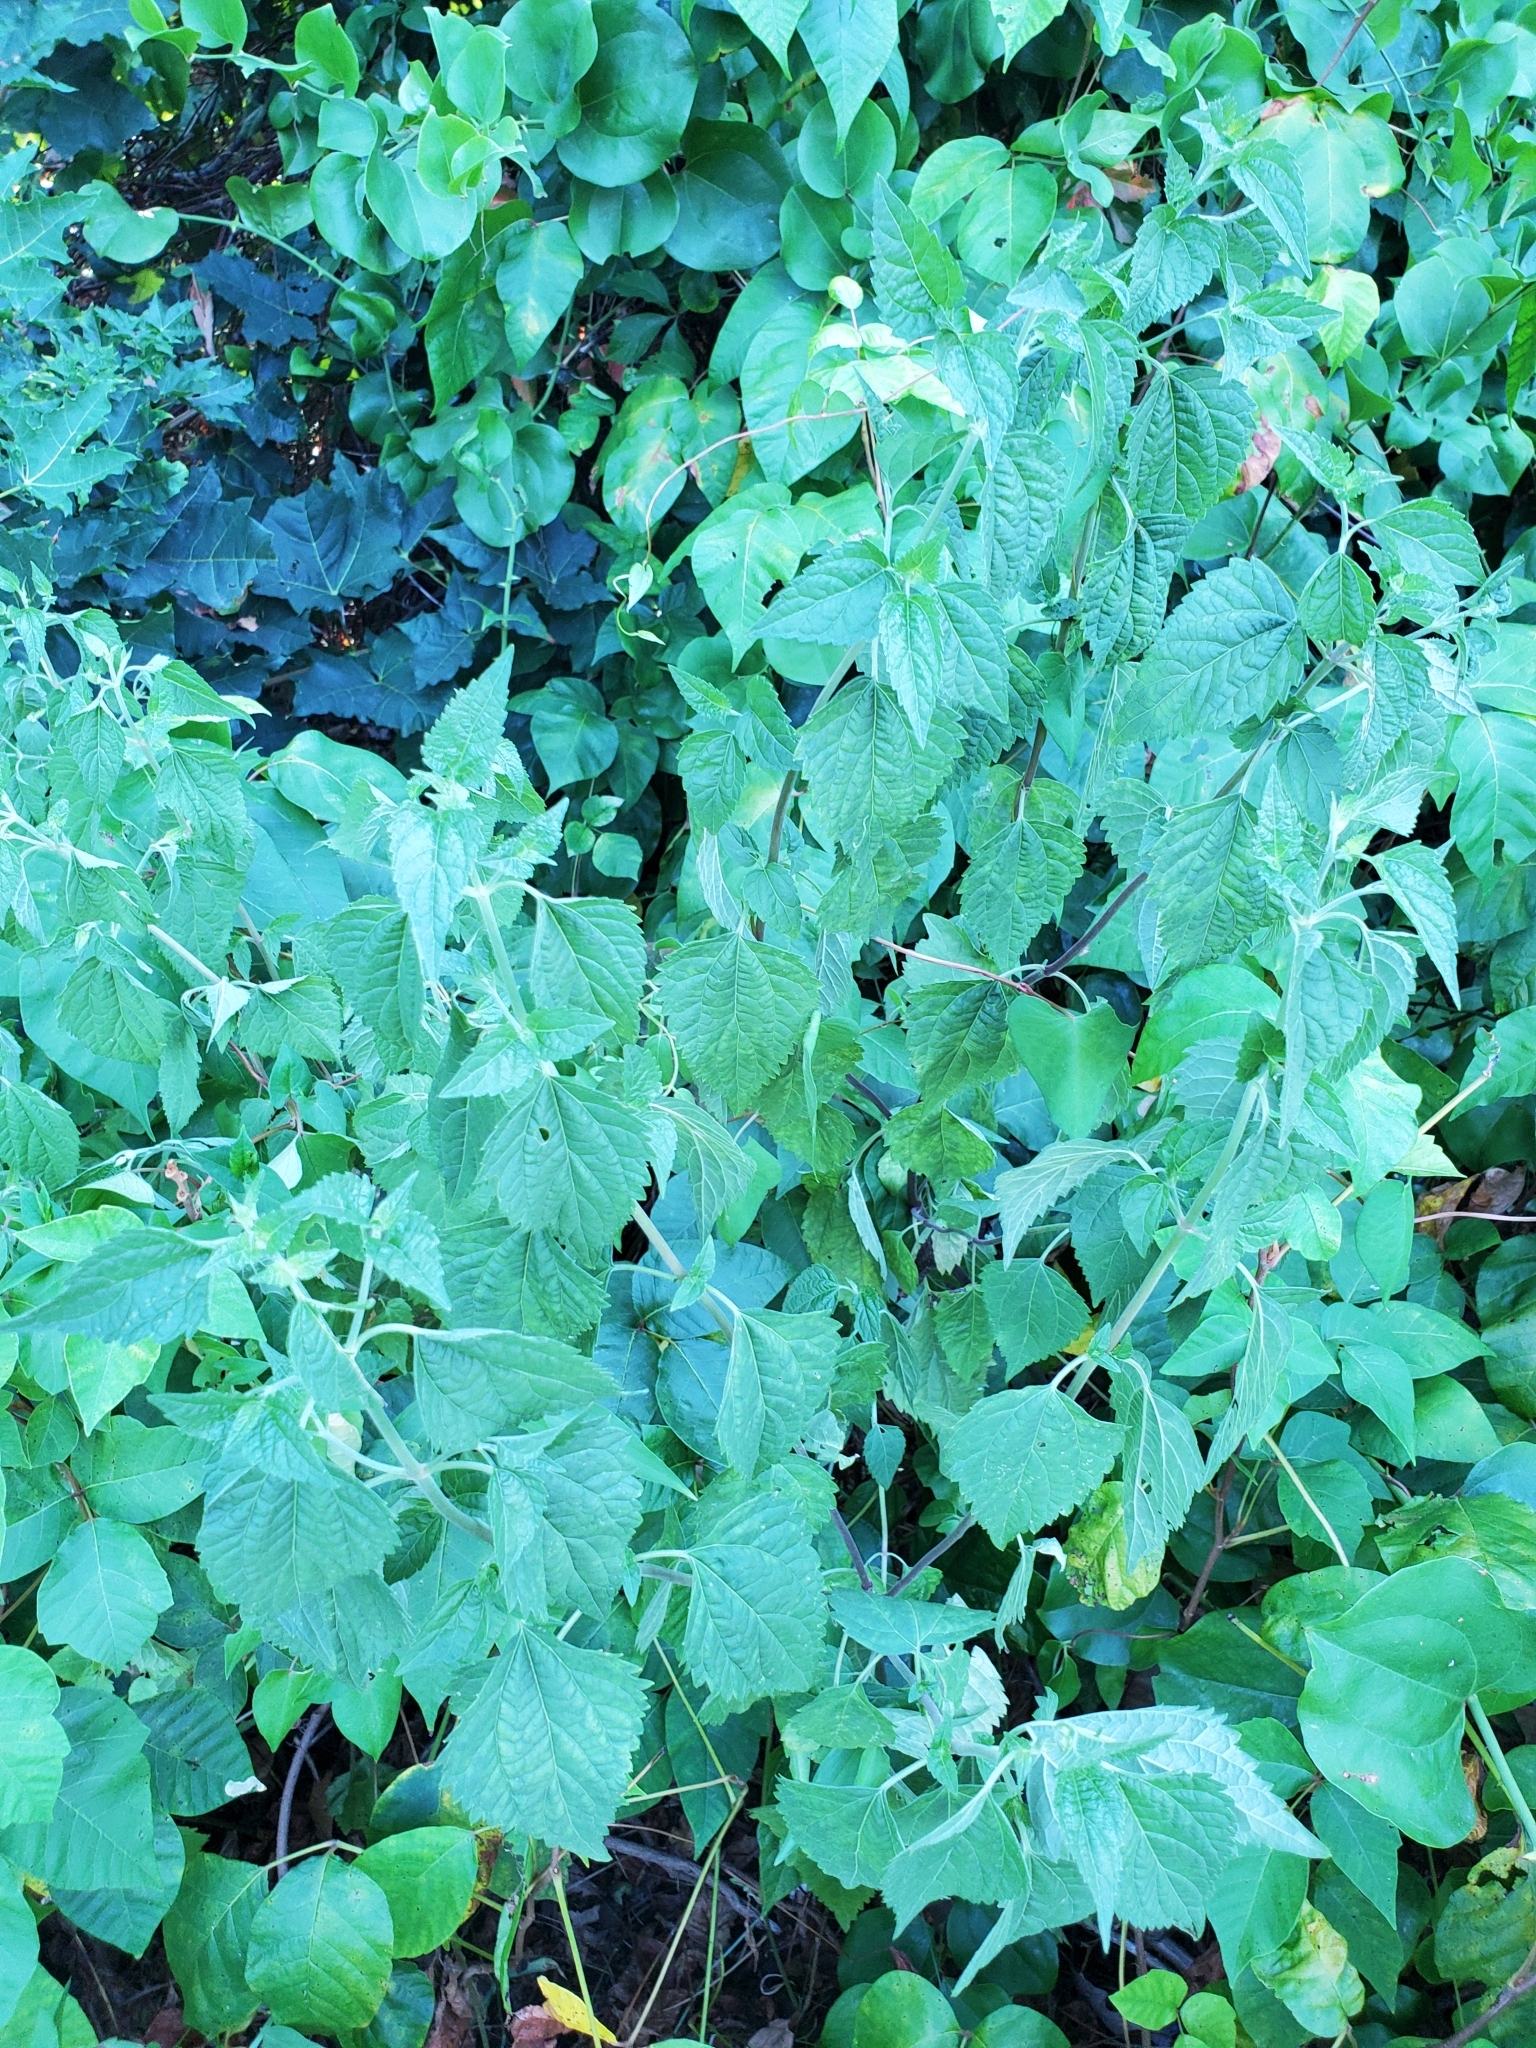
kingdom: Plantae
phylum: Tracheophyta
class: Magnoliopsida
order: Asterales
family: Asteraceae
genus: Ageratina
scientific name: Ageratina altissima
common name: White snakeroot
